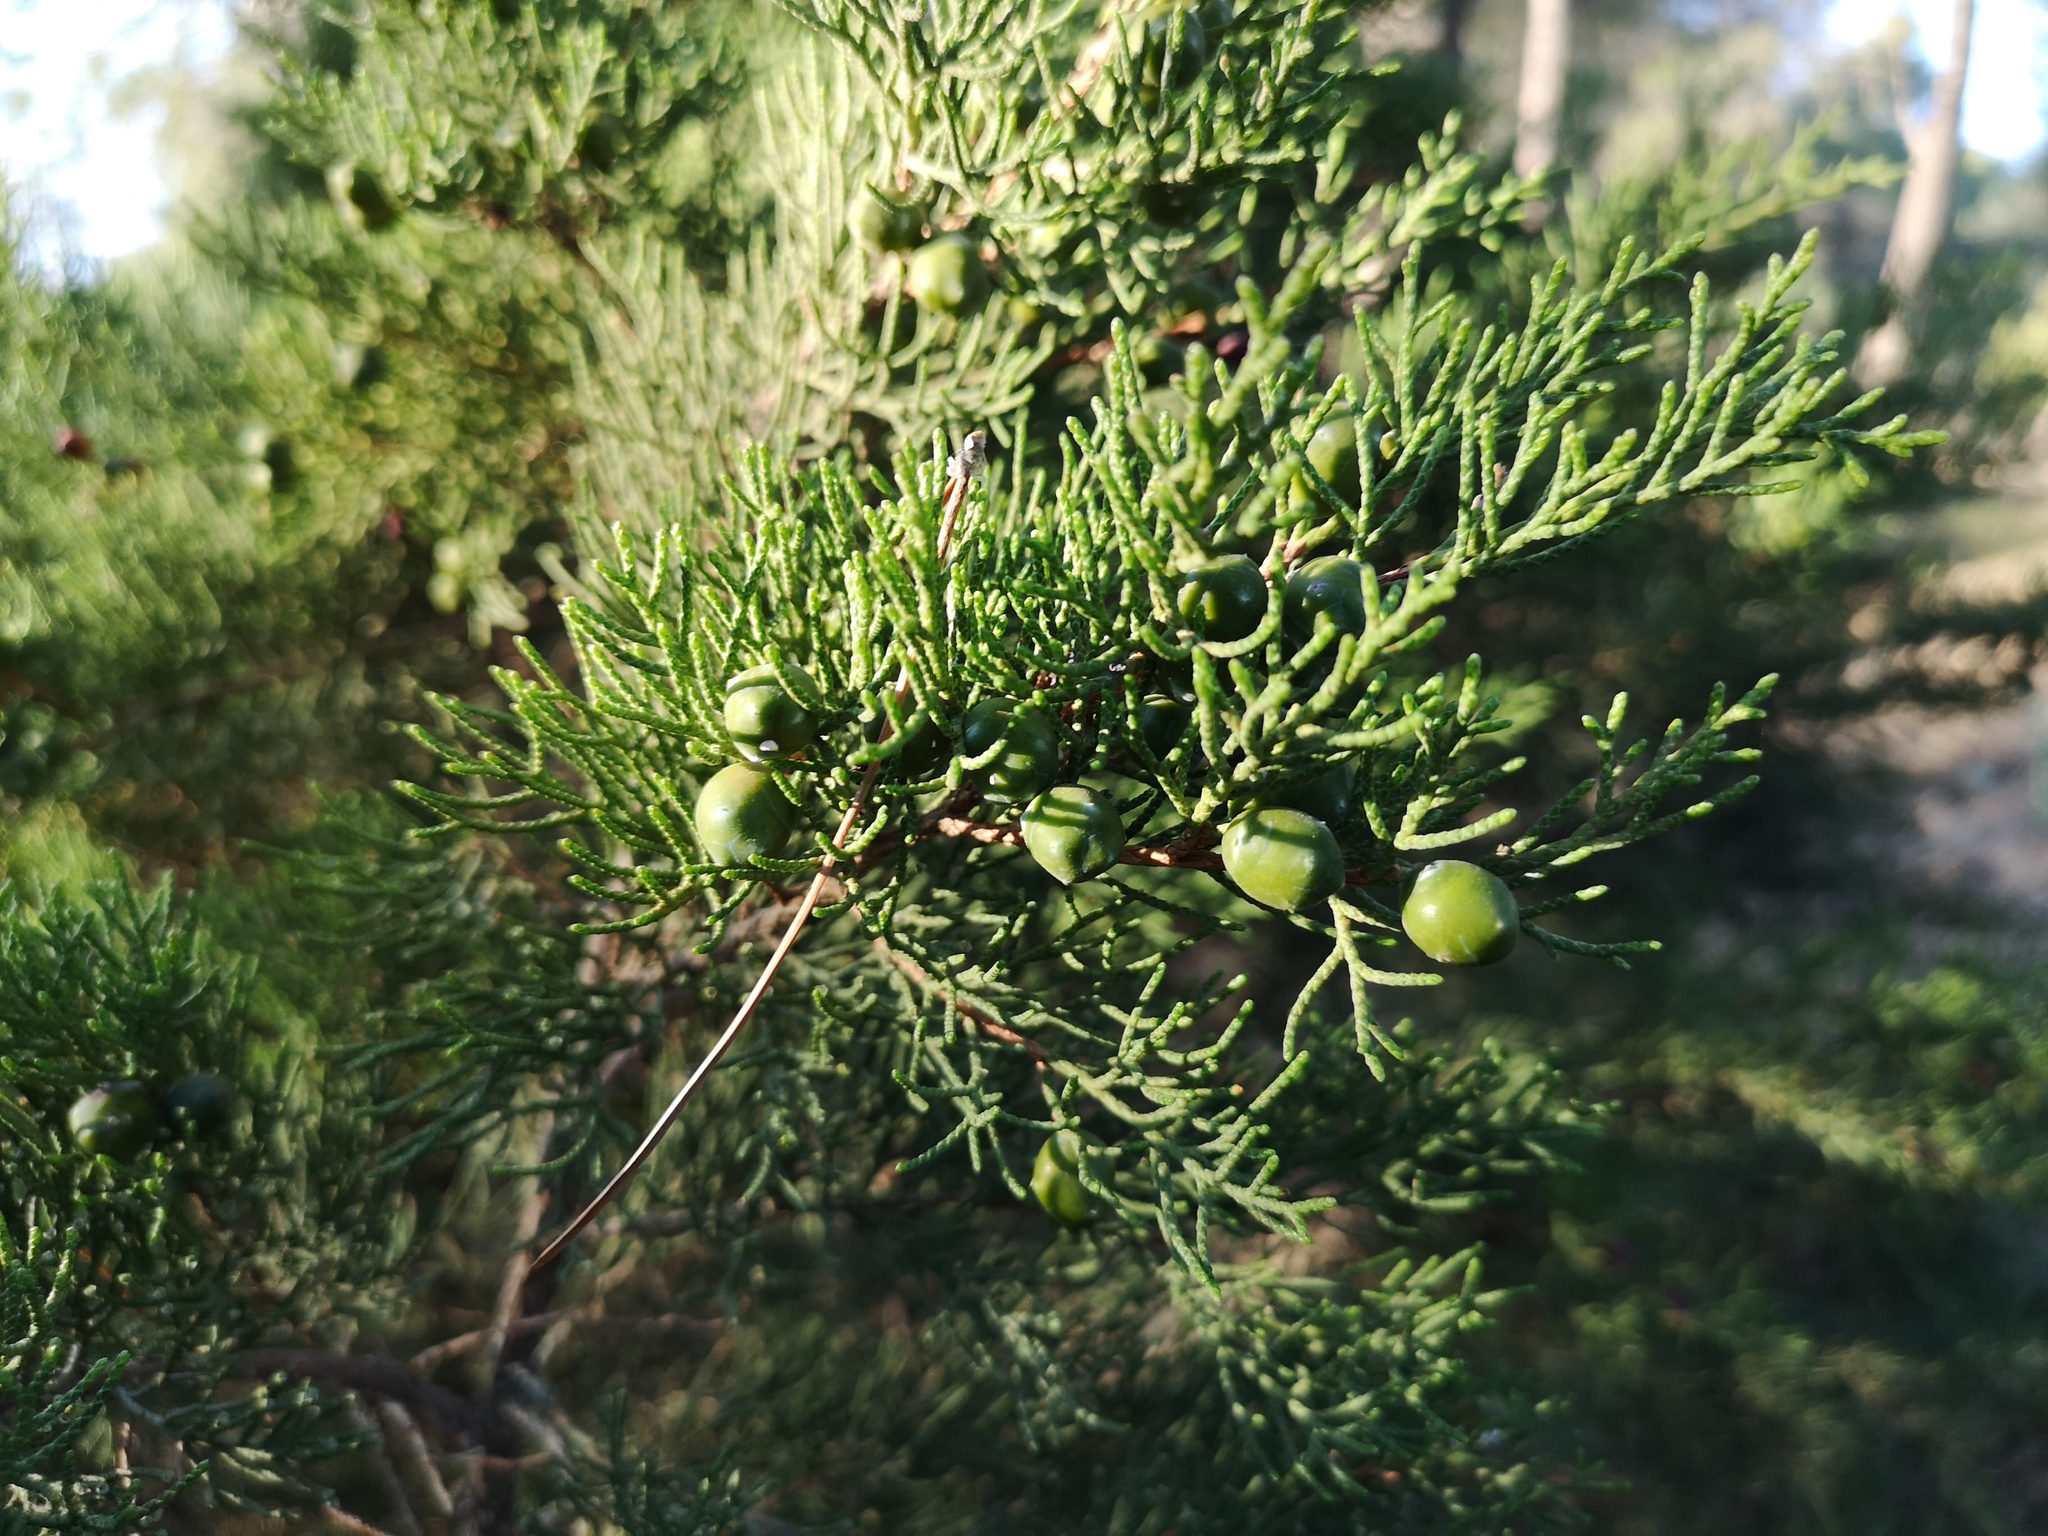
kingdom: Plantae
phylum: Tracheophyta
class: Pinopsida
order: Pinales
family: Cupressaceae
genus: Juniperus
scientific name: Juniperus phoenicea
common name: Phoenician juniper
